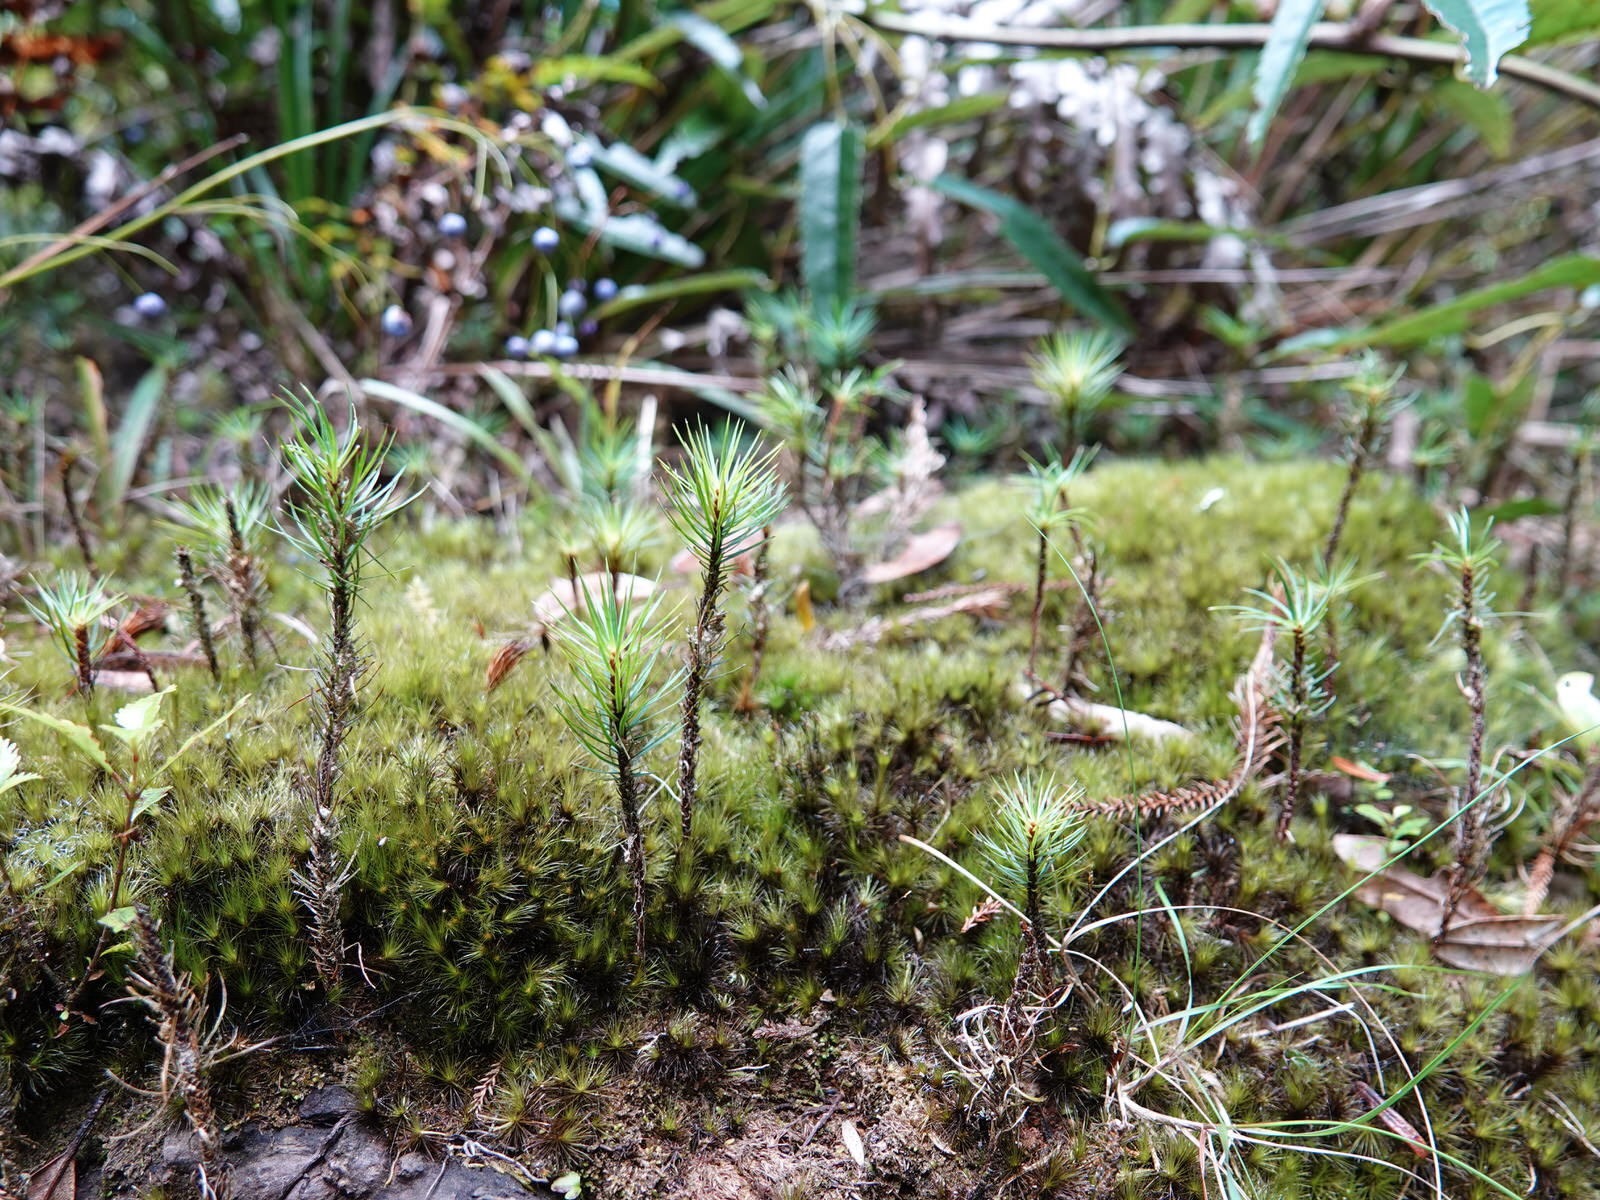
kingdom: Plantae
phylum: Bryophyta
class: Polytrichopsida
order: Polytrichales
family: Polytrichaceae
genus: Dawsonia
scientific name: Dawsonia superba
